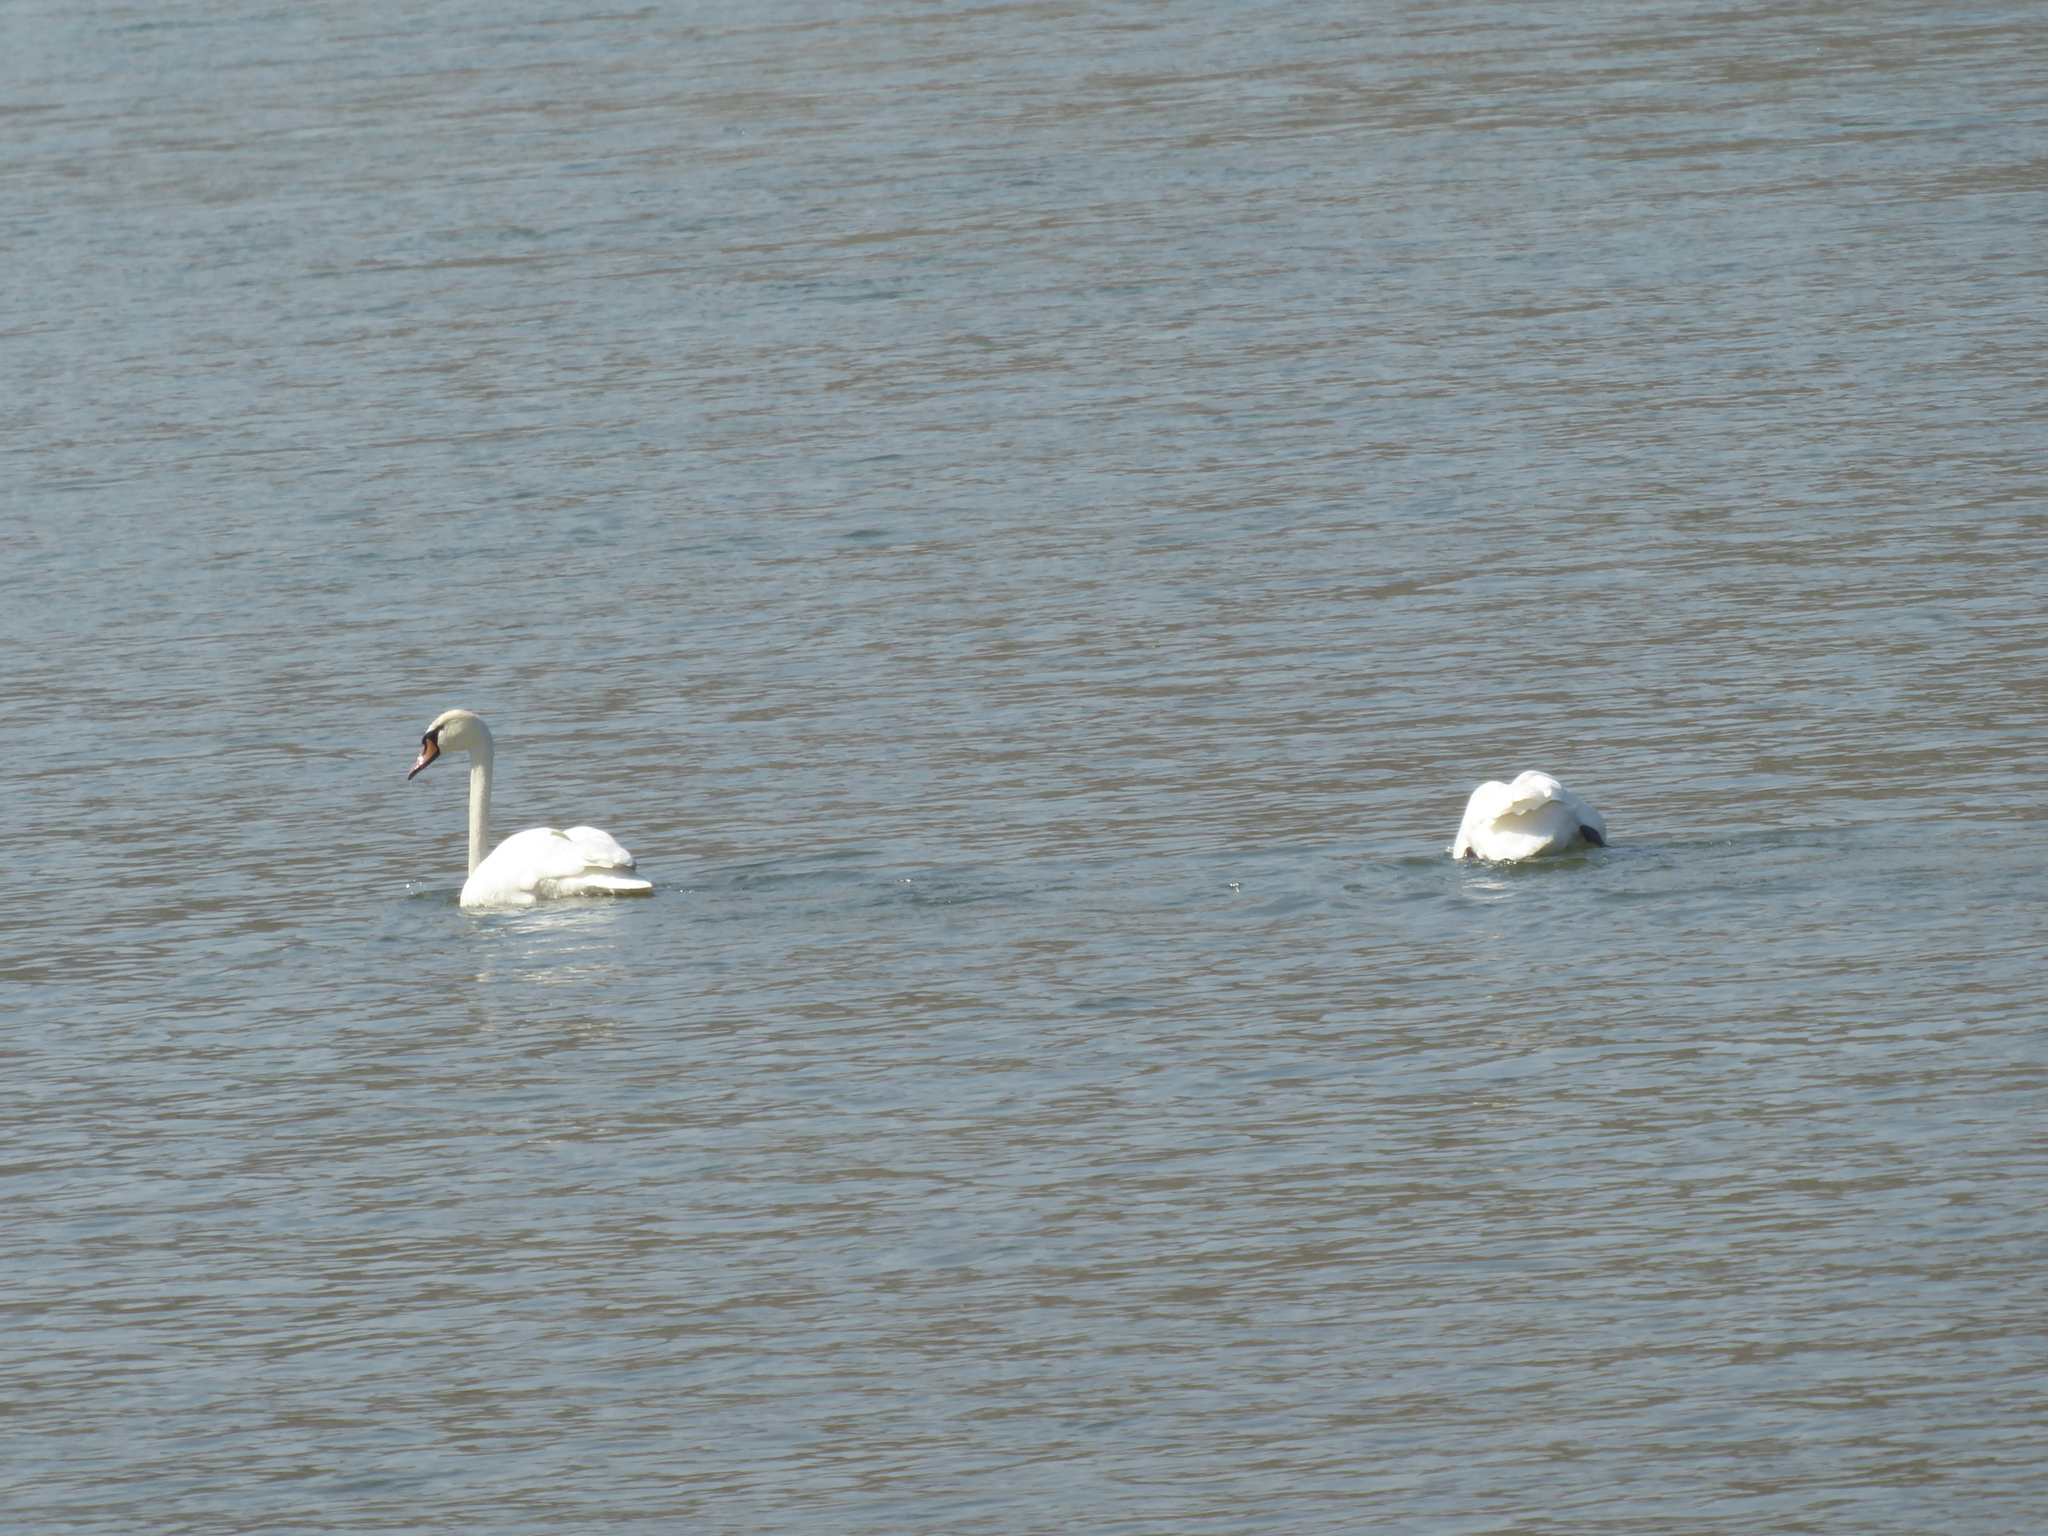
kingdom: Animalia
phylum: Chordata
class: Aves
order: Anseriformes
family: Anatidae
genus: Cygnus
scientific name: Cygnus olor
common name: Mute swan
